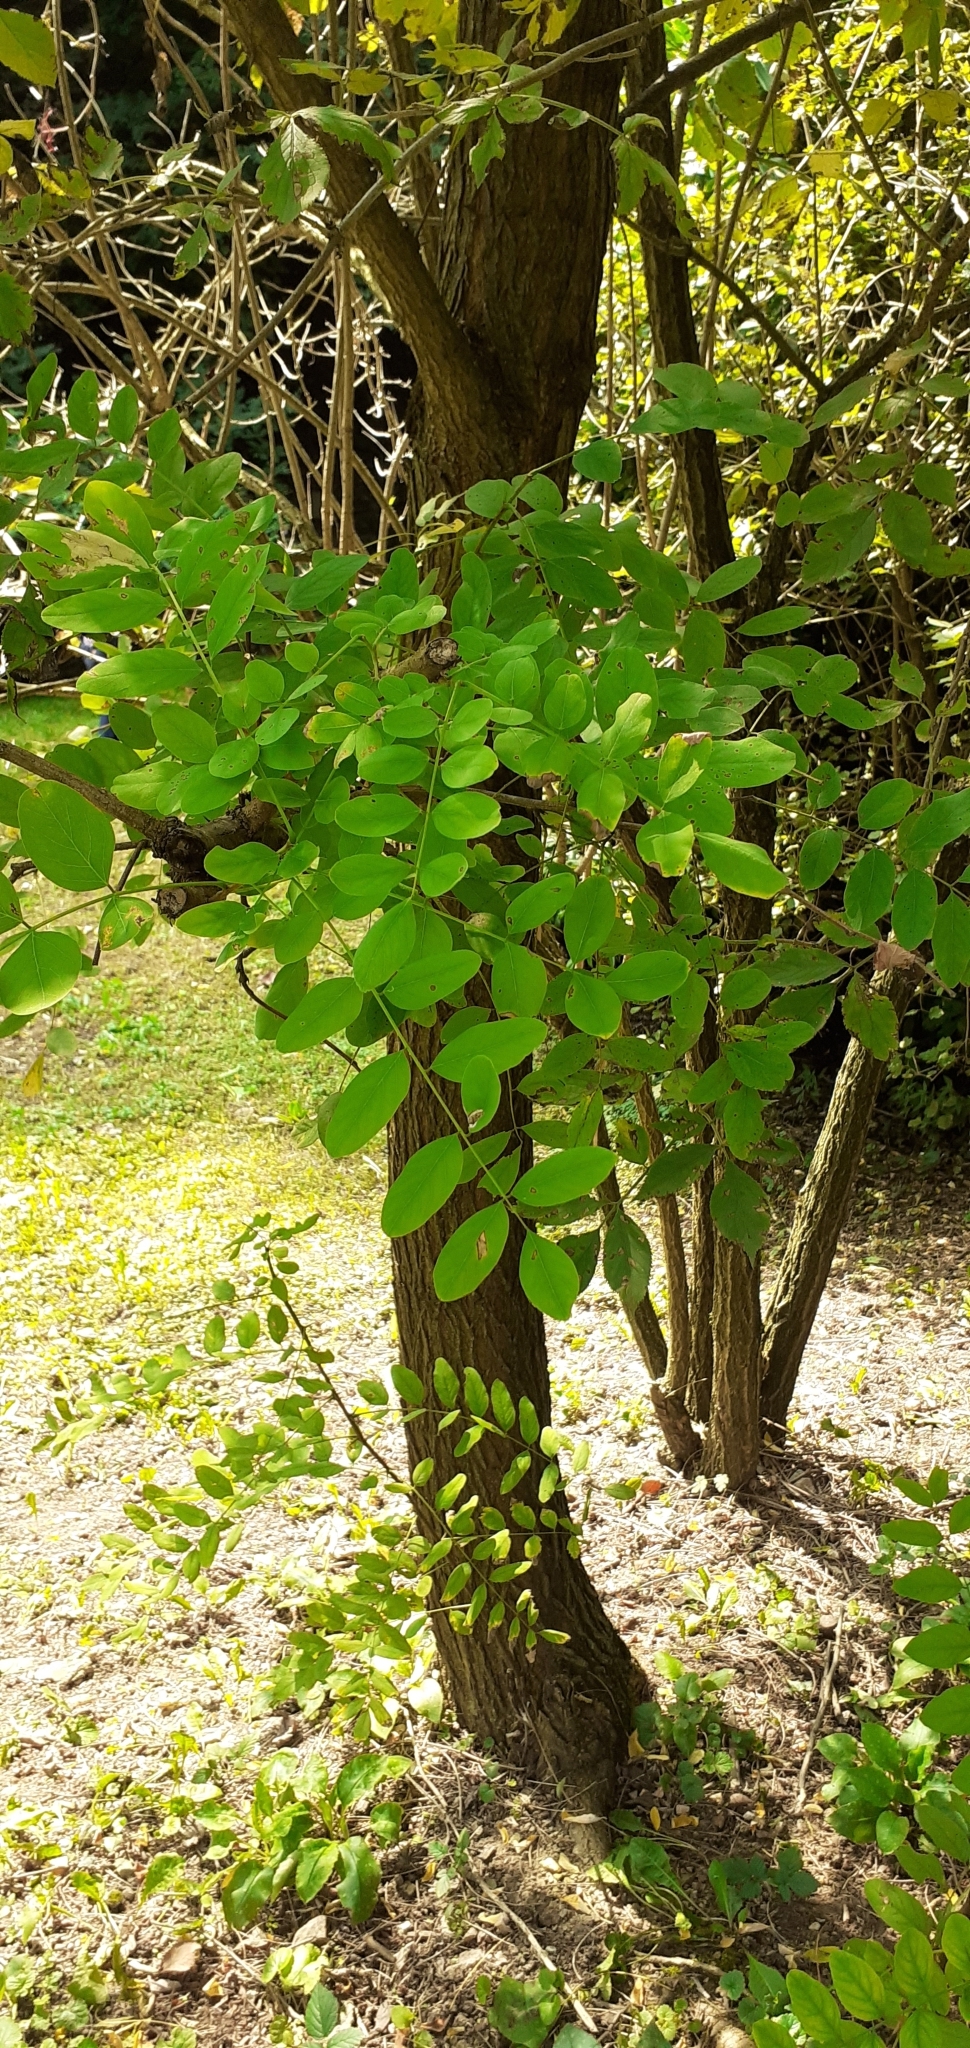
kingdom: Plantae
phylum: Tracheophyta
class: Magnoliopsida
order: Fabales
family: Fabaceae
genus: Robinia
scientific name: Robinia pseudoacacia
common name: Black locust
